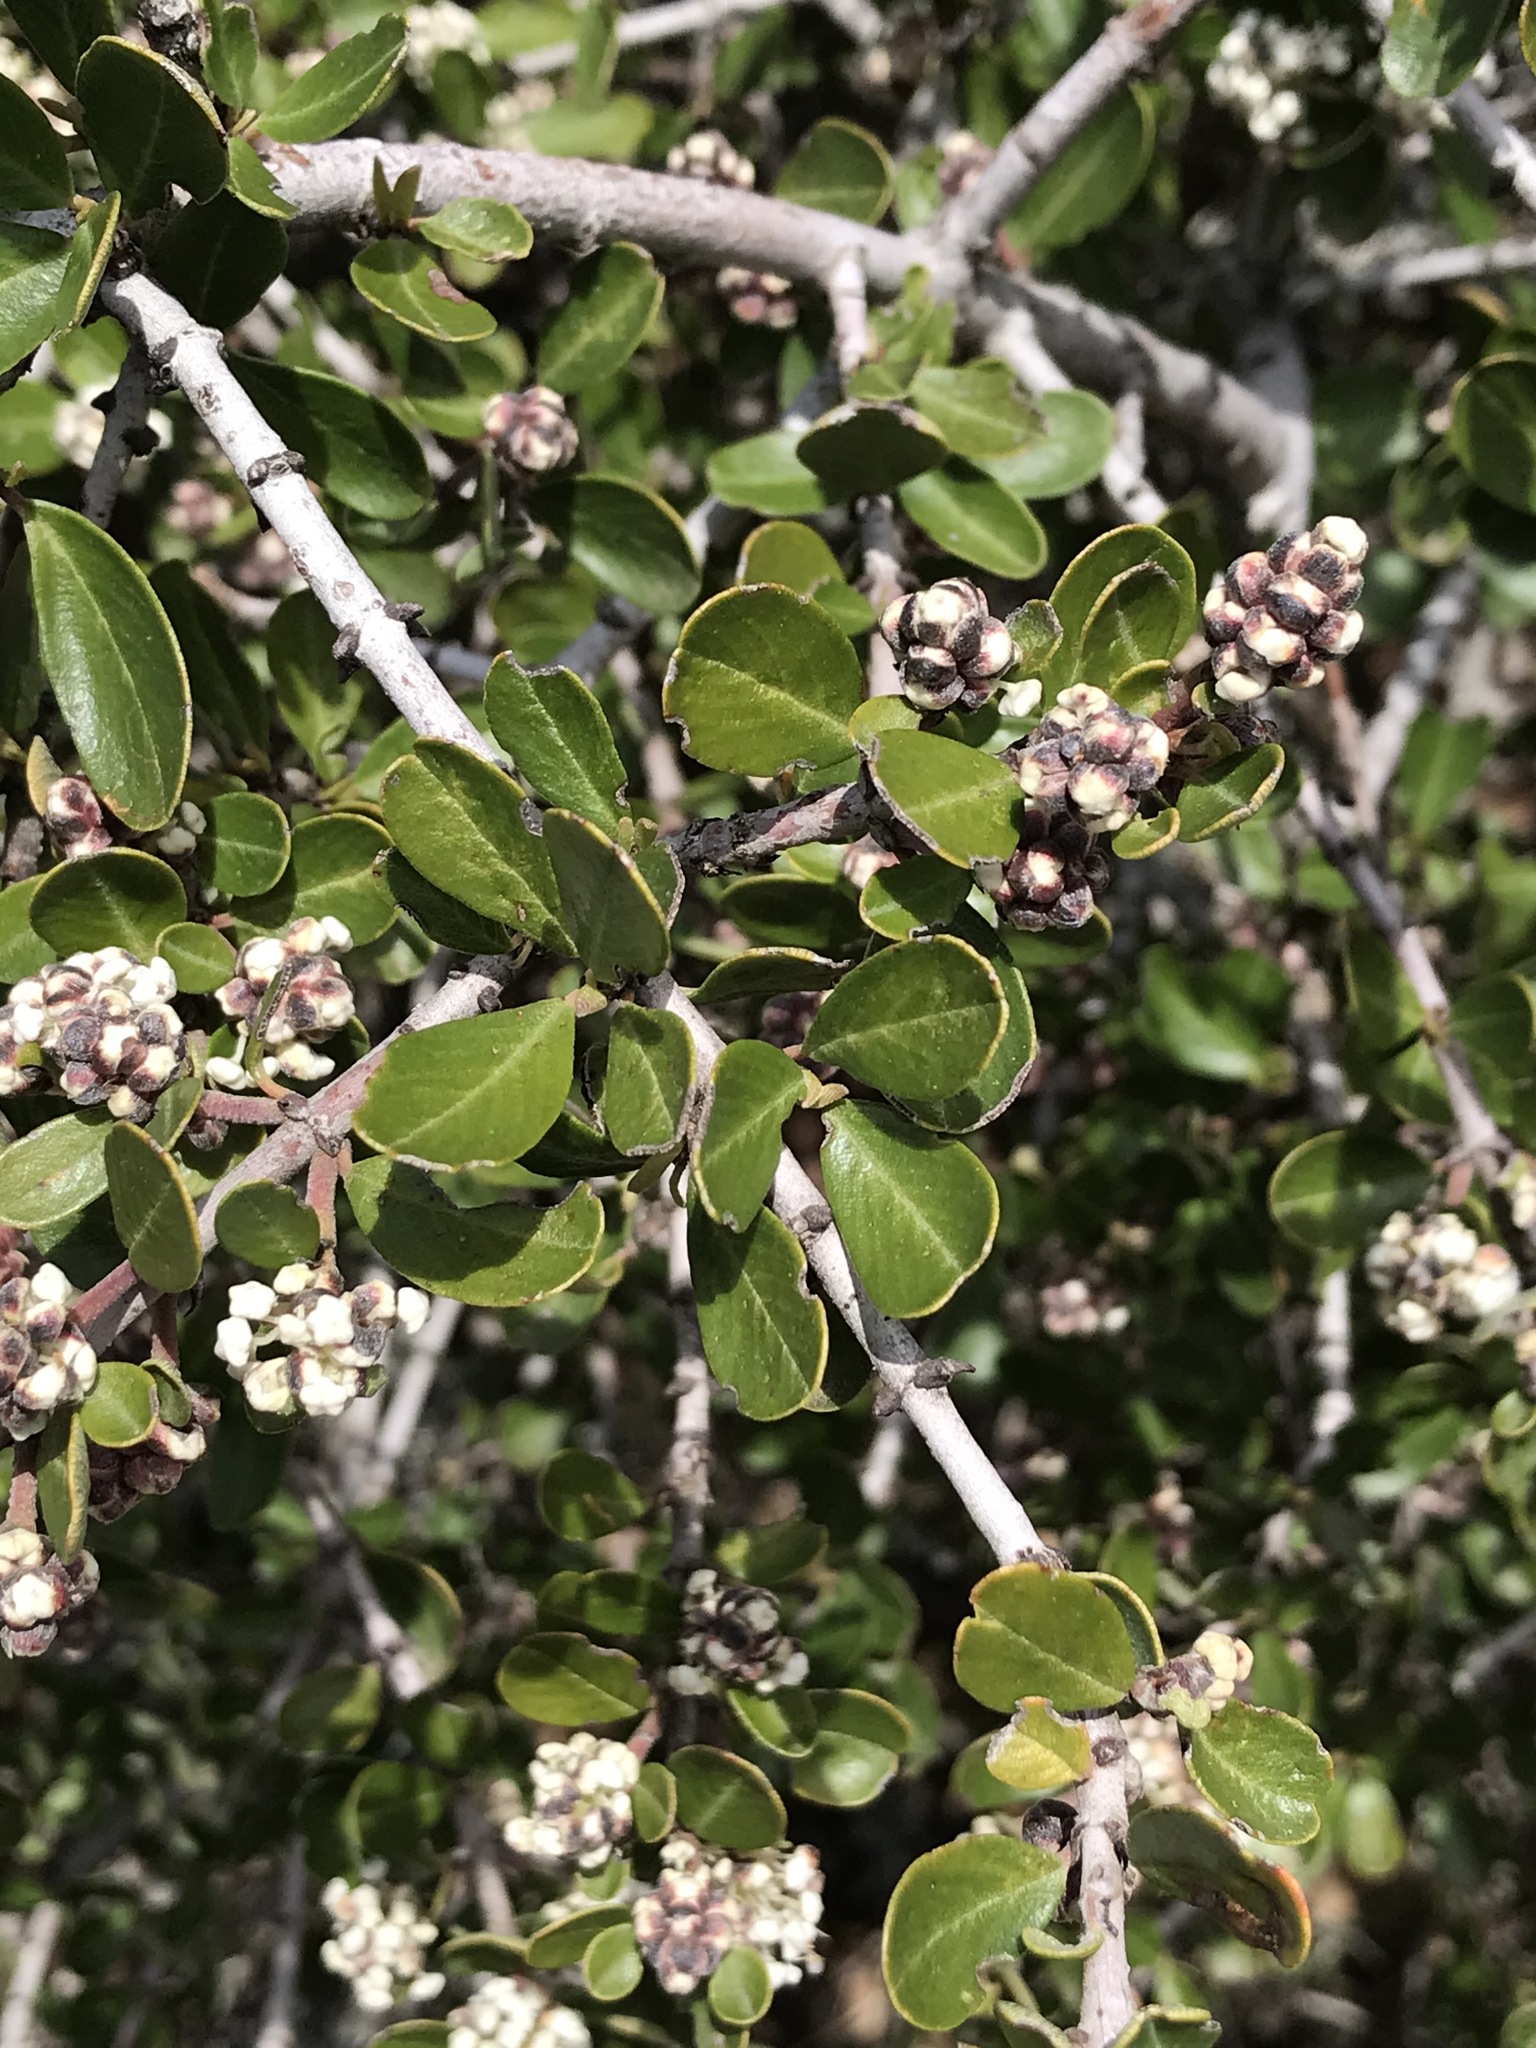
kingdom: Plantae
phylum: Tracheophyta
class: Magnoliopsida
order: Rosales
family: Rhamnaceae
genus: Ceanothus
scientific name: Ceanothus cuneatus
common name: Cuneate ceanothus
